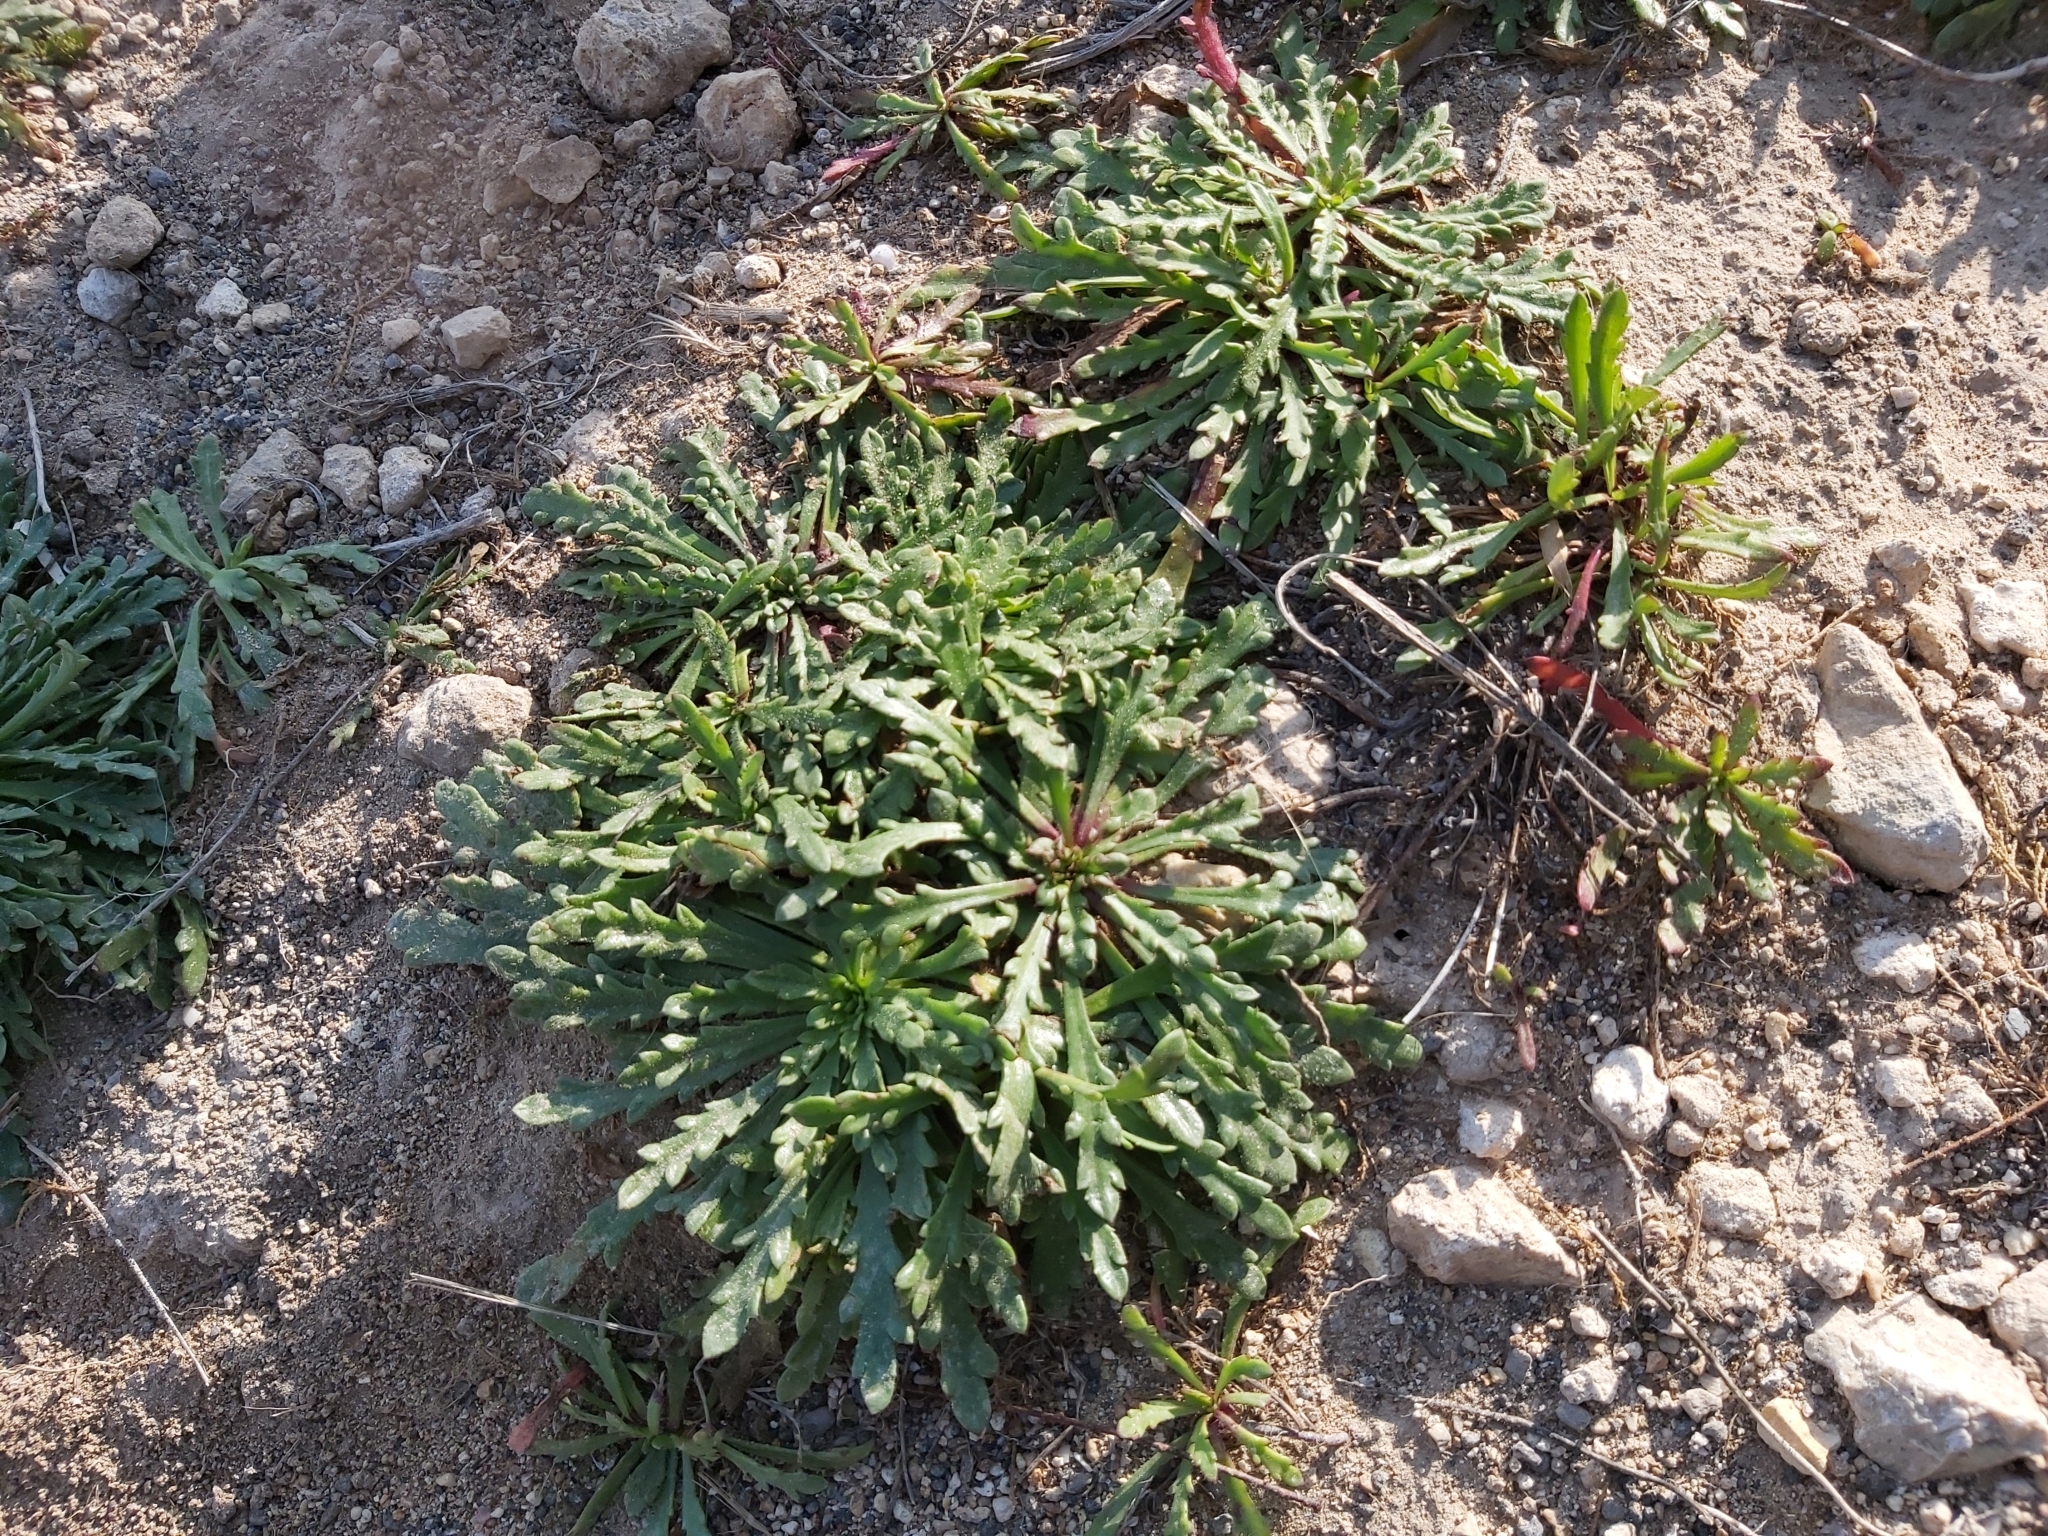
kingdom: Plantae
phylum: Tracheophyta
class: Magnoliopsida
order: Lamiales
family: Plantaginaceae
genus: Plantago
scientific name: Plantago coronopus
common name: Buck's-horn plantain
